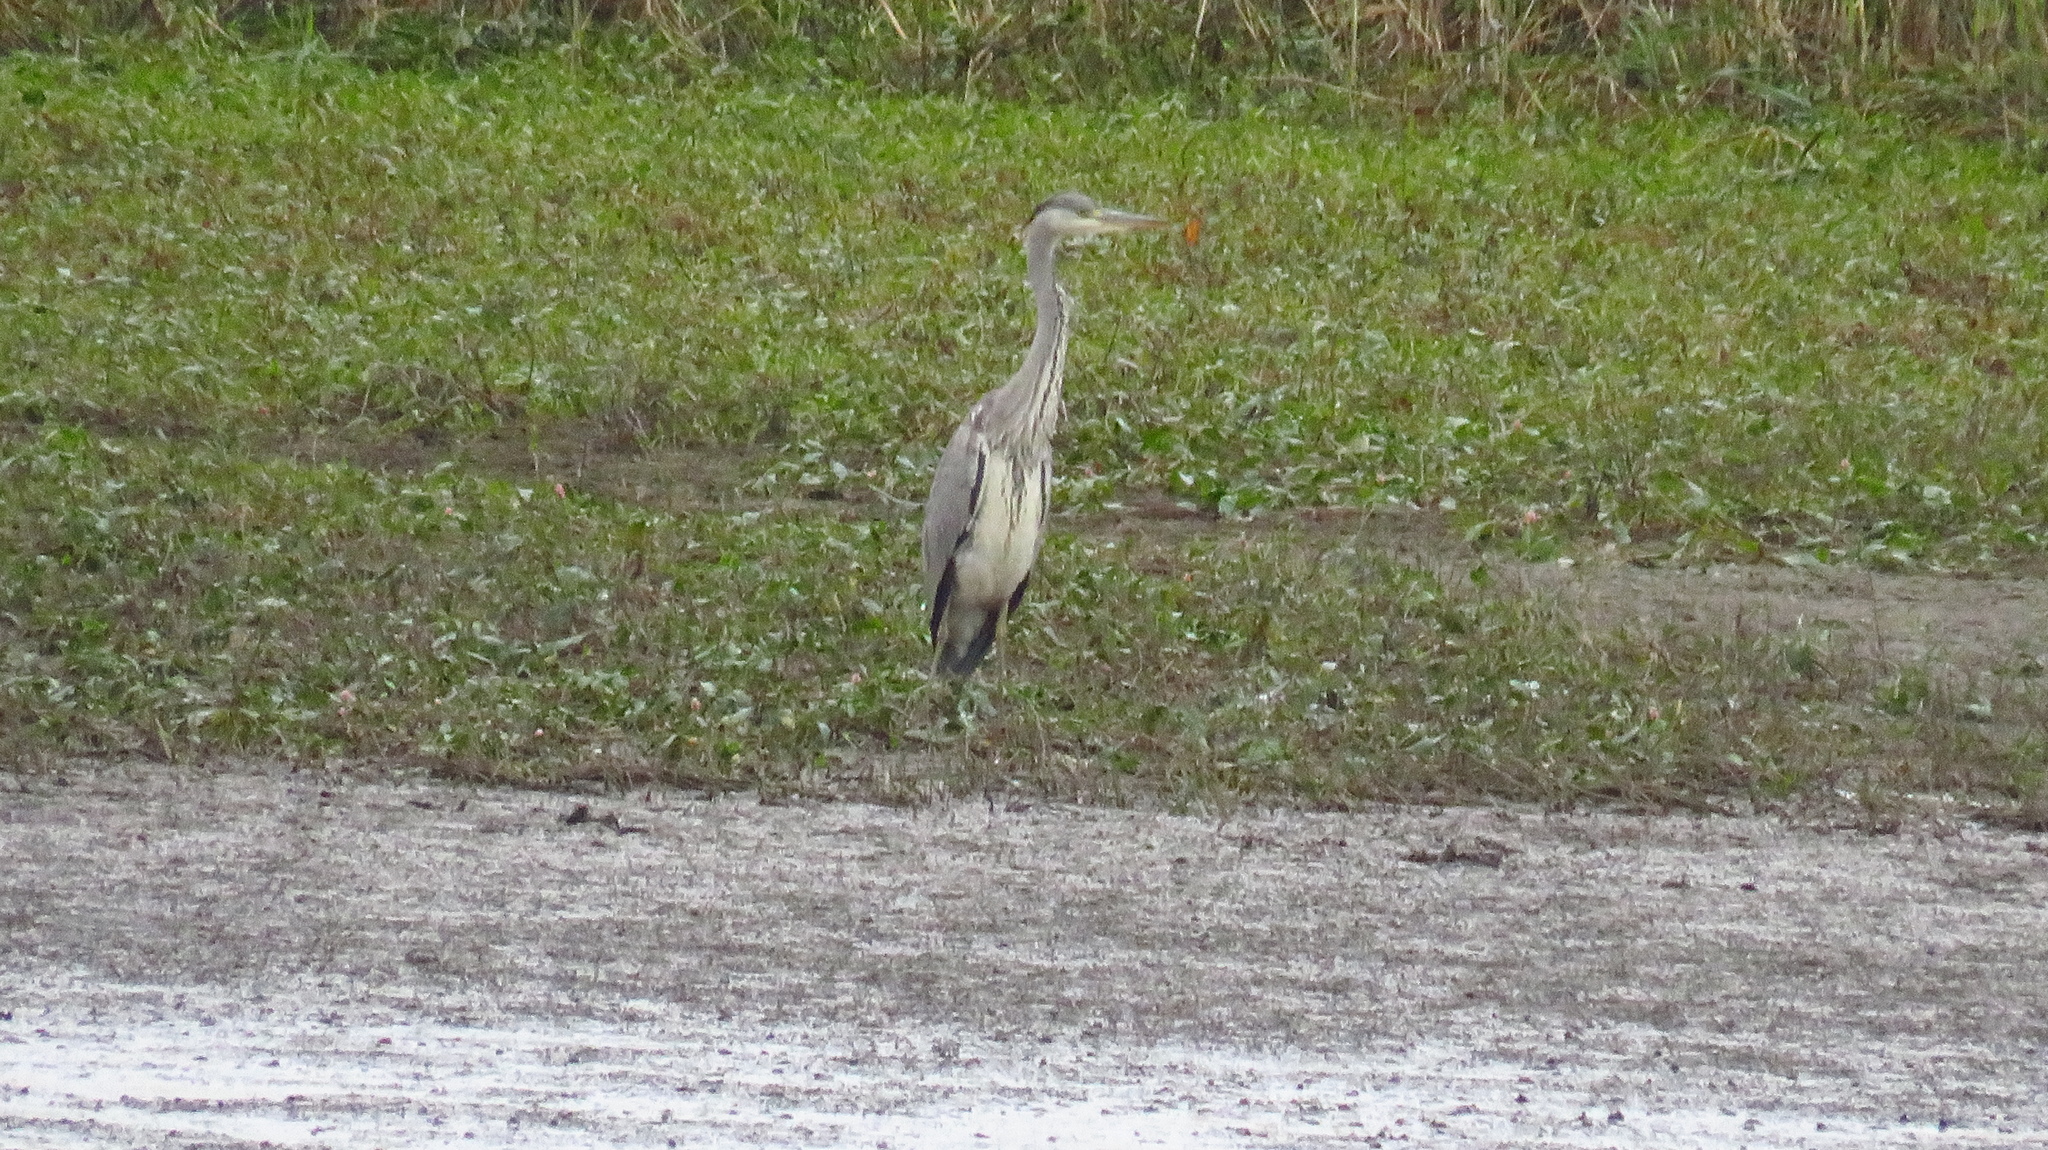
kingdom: Animalia
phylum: Chordata
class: Aves
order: Pelecaniformes
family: Ardeidae
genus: Ardea
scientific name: Ardea cinerea
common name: Grey heron
